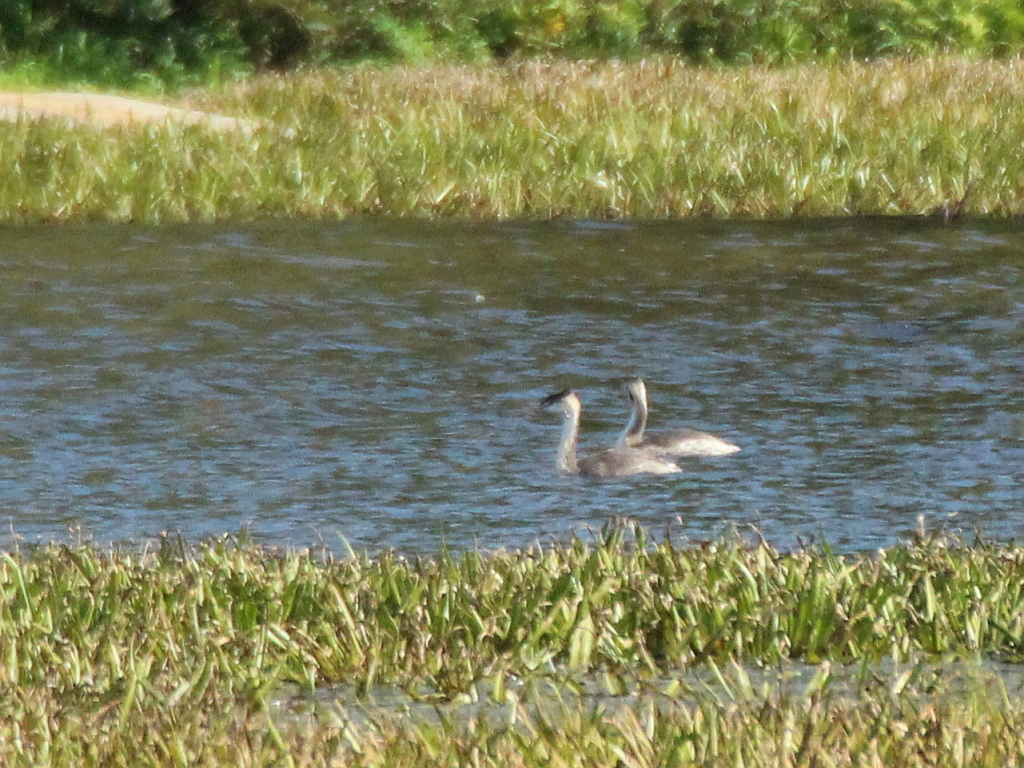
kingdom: Animalia
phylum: Chordata
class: Aves
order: Podicipediformes
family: Podicipedidae
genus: Podiceps
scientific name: Podiceps cristatus
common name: Great crested grebe
